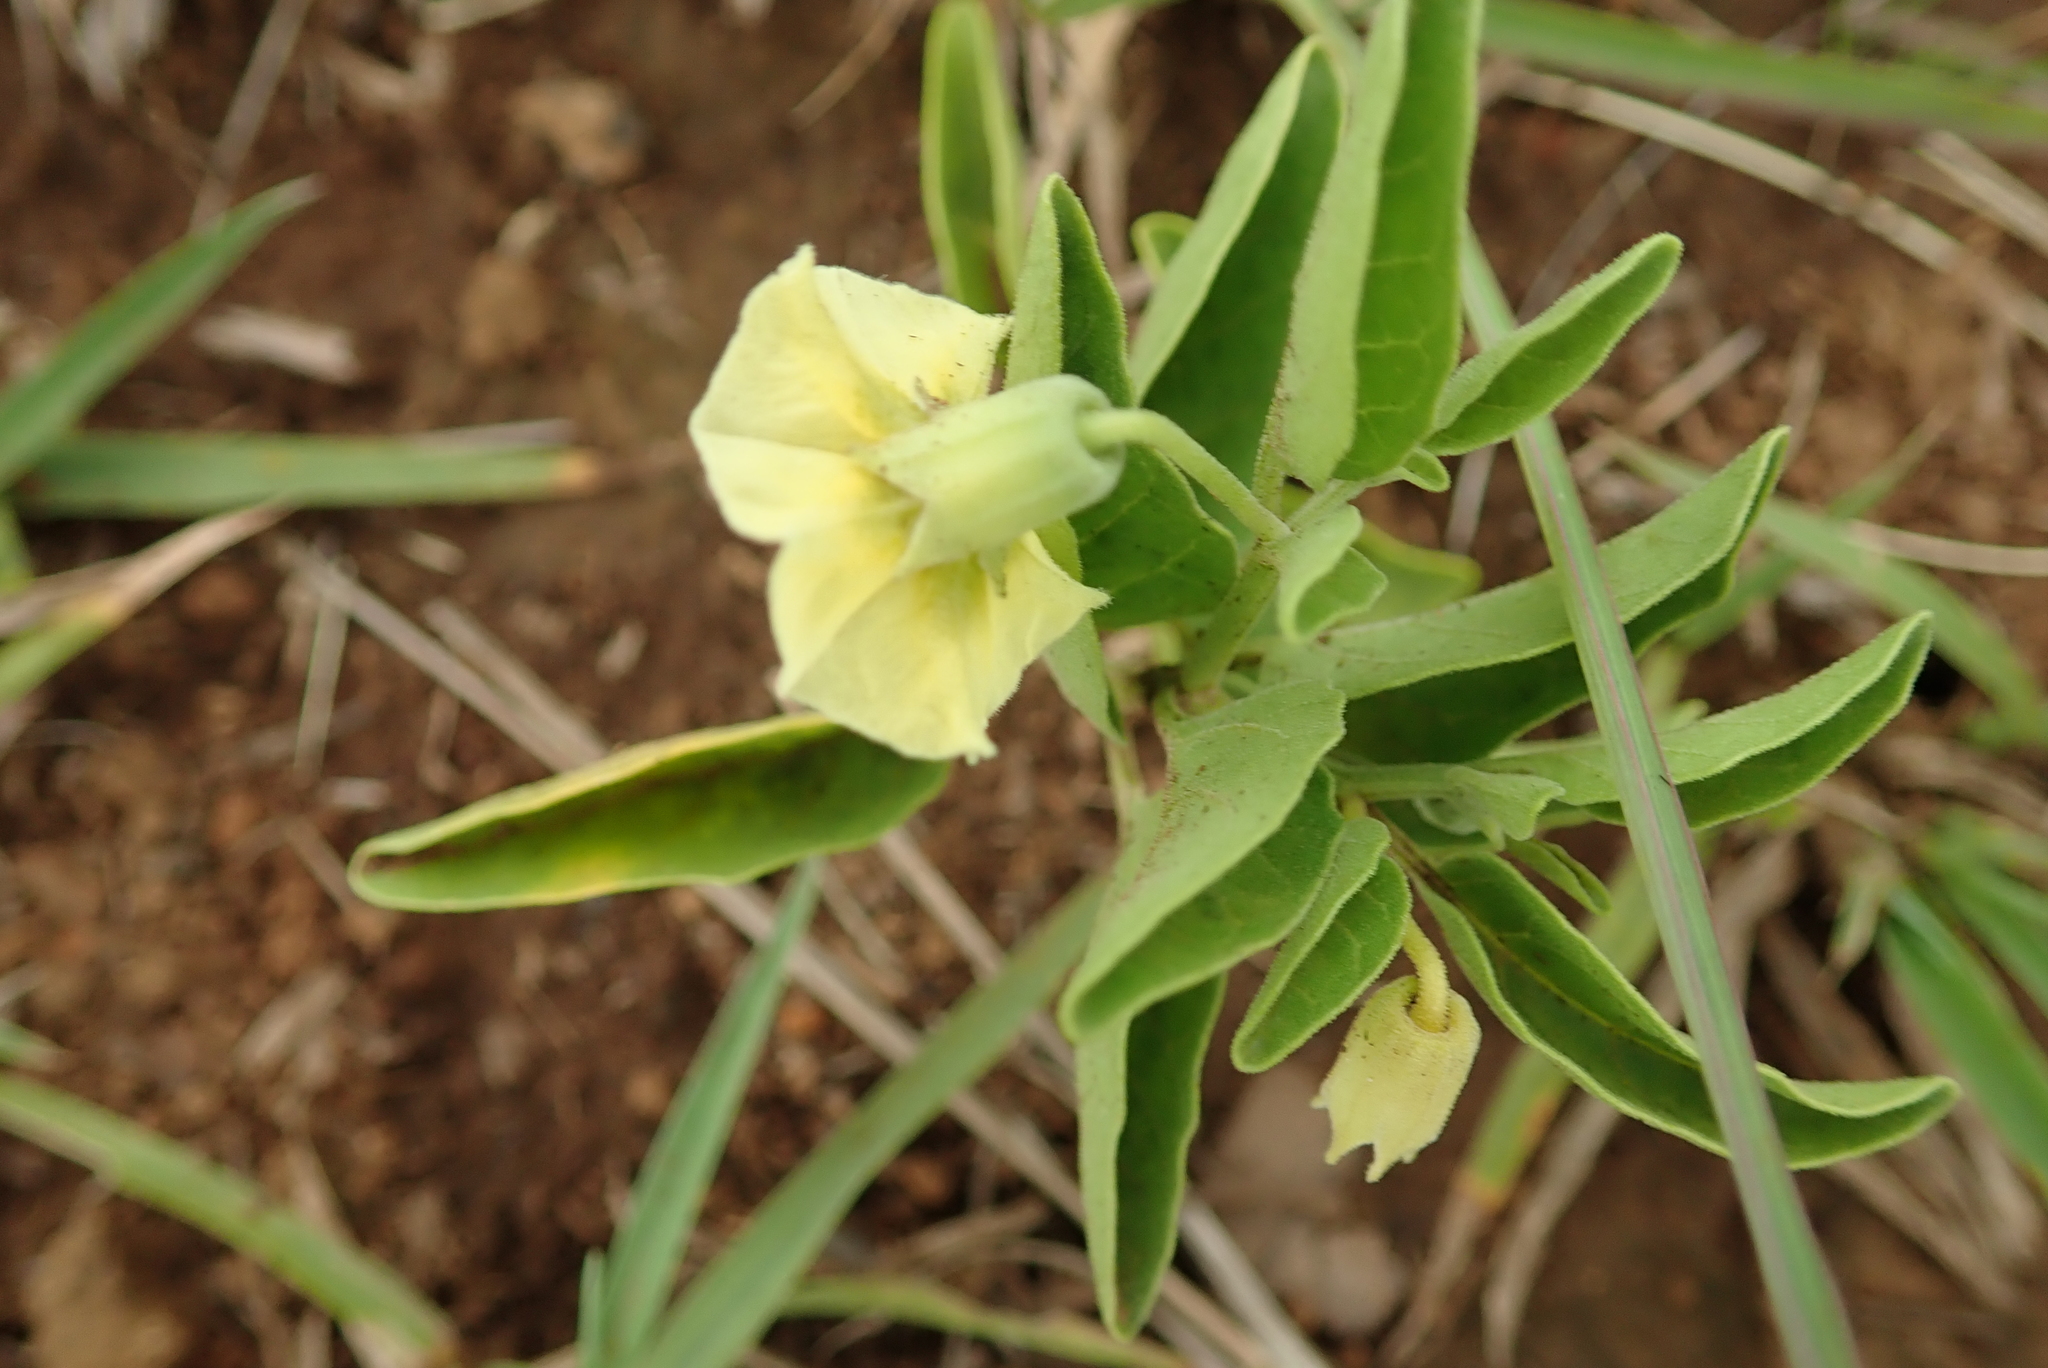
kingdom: Plantae
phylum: Tracheophyta
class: Magnoliopsida
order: Solanales
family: Solanaceae
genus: Physalis
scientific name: Physalis viscosa
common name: Stellate ground-cherry
